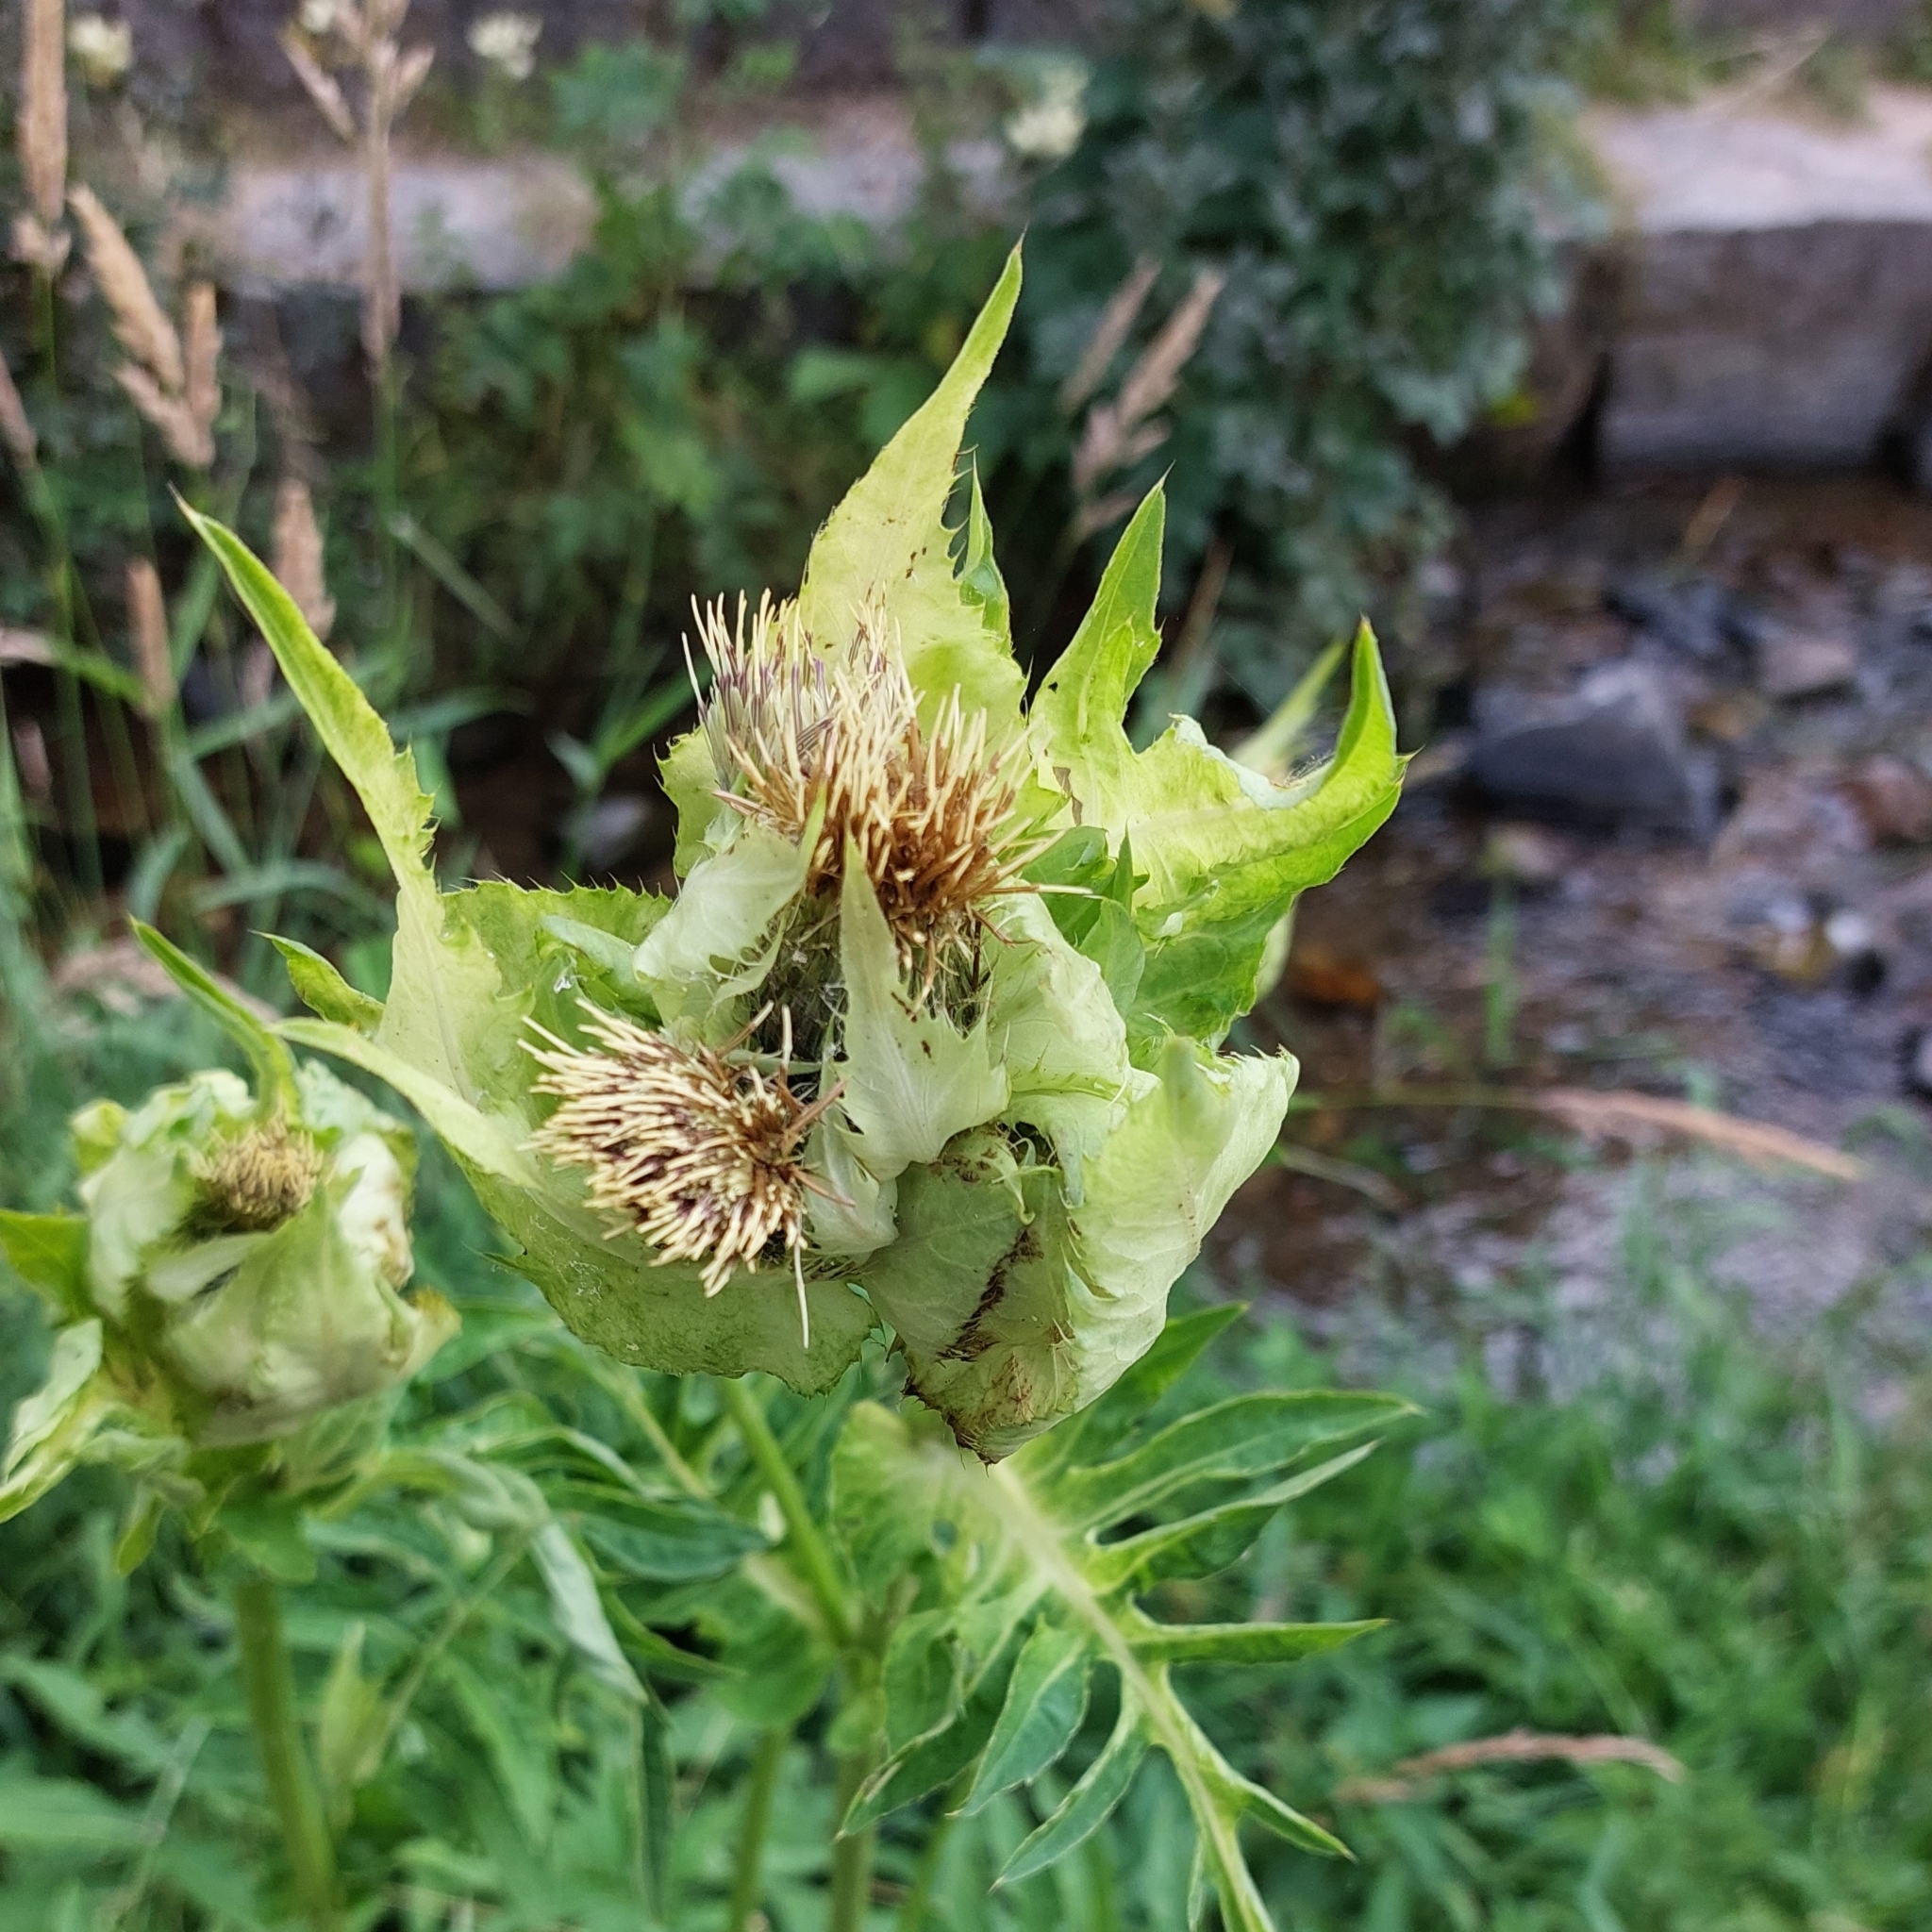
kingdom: Plantae
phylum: Tracheophyta
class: Magnoliopsida
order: Asterales
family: Asteraceae
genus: Cirsium
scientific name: Cirsium oleraceum
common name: Cabbage thistle
